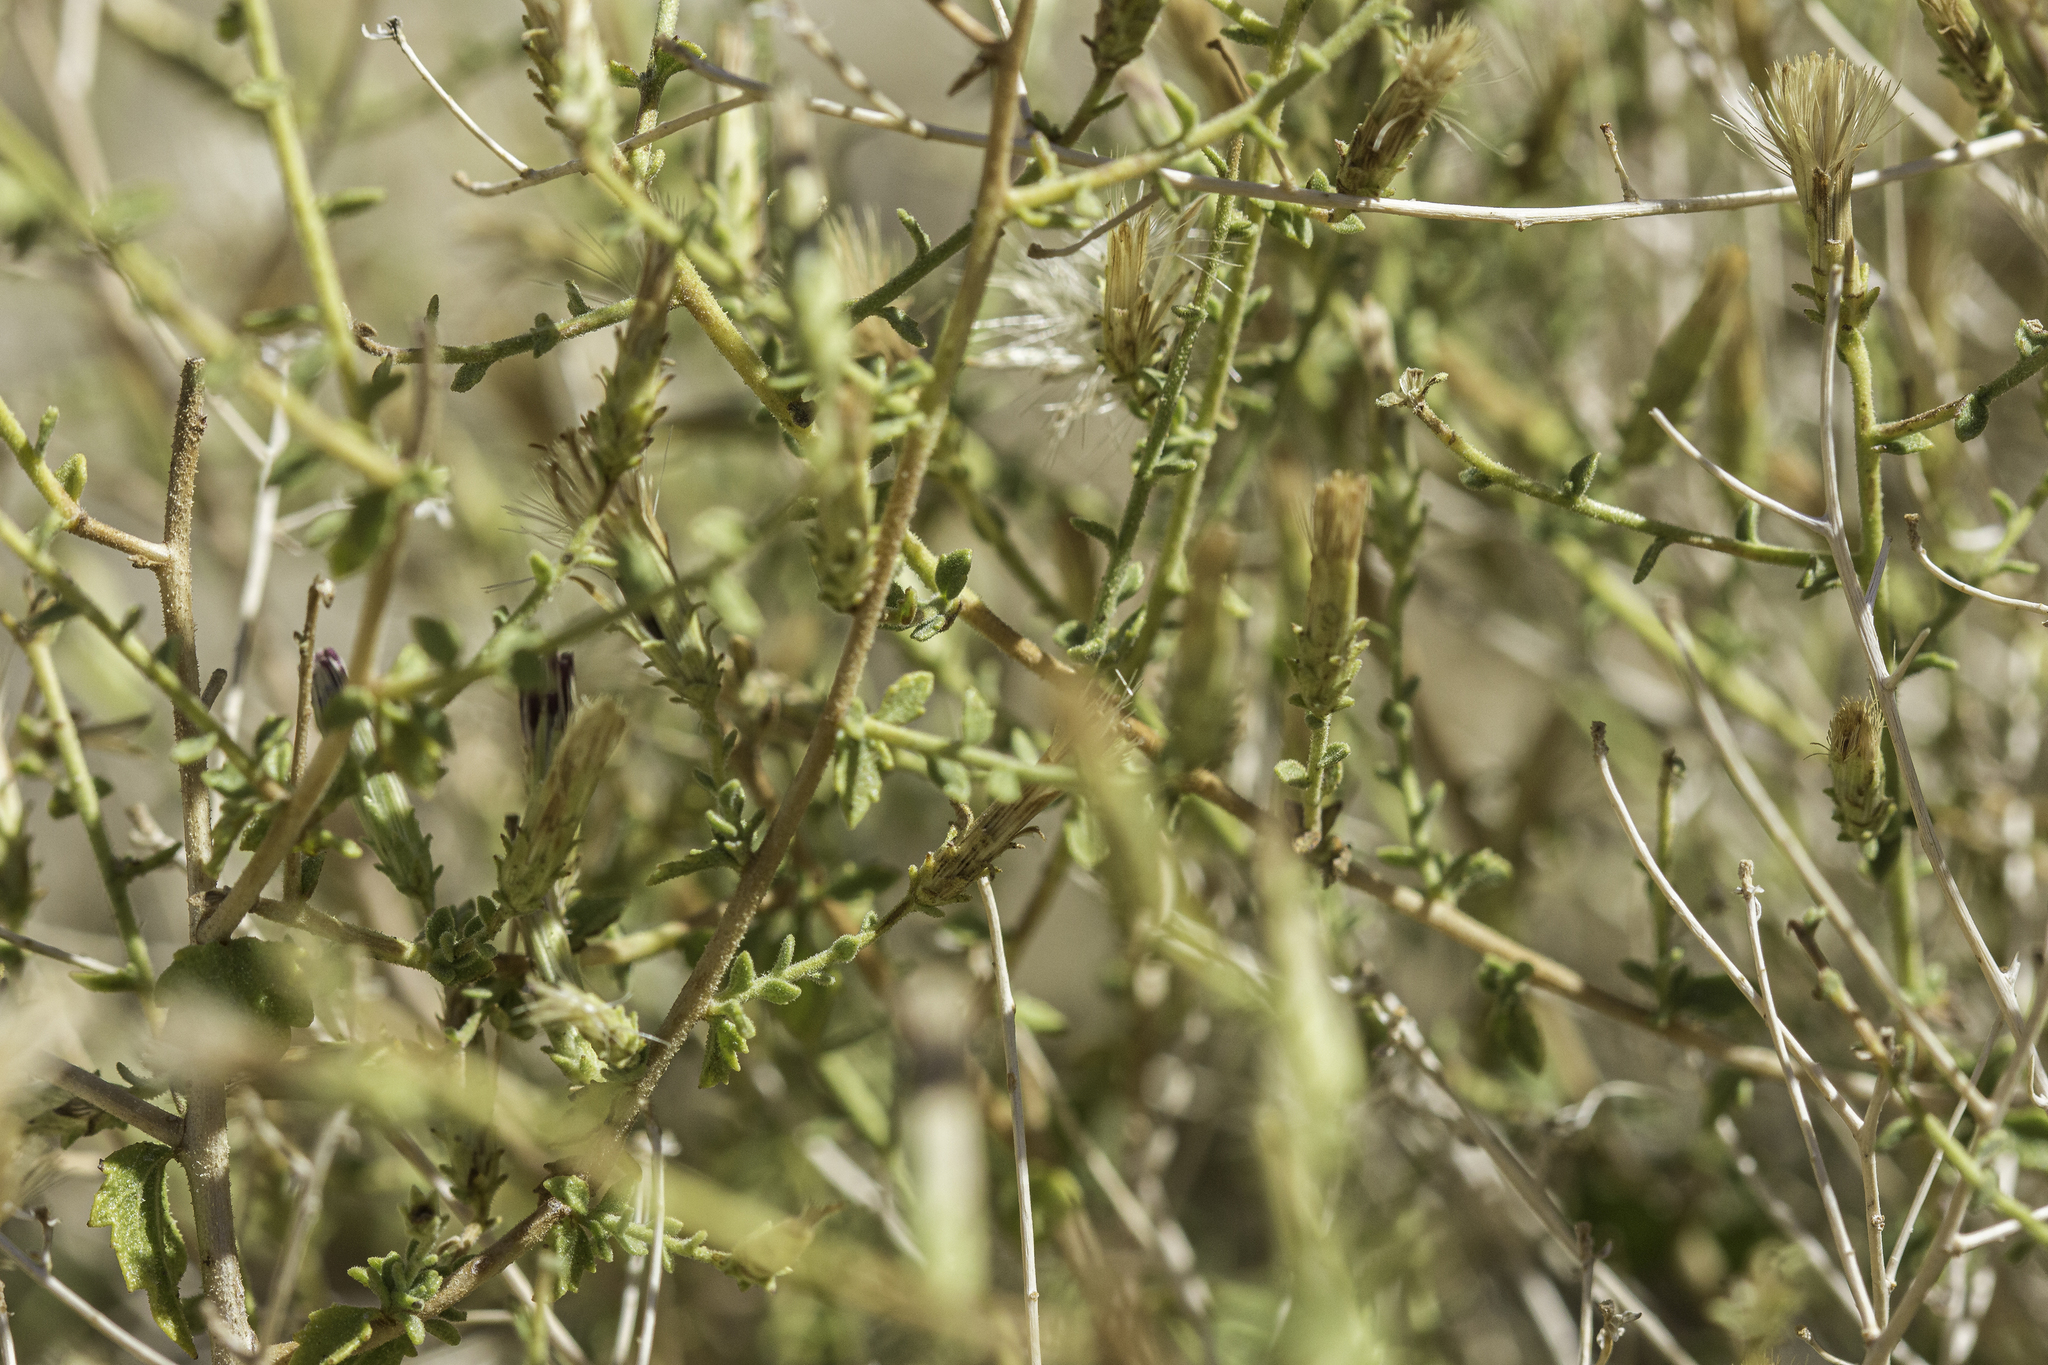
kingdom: Plantae
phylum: Tracheophyta
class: Magnoliopsida
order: Asterales
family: Asteraceae
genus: Brickellia
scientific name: Brickellia microphylla
